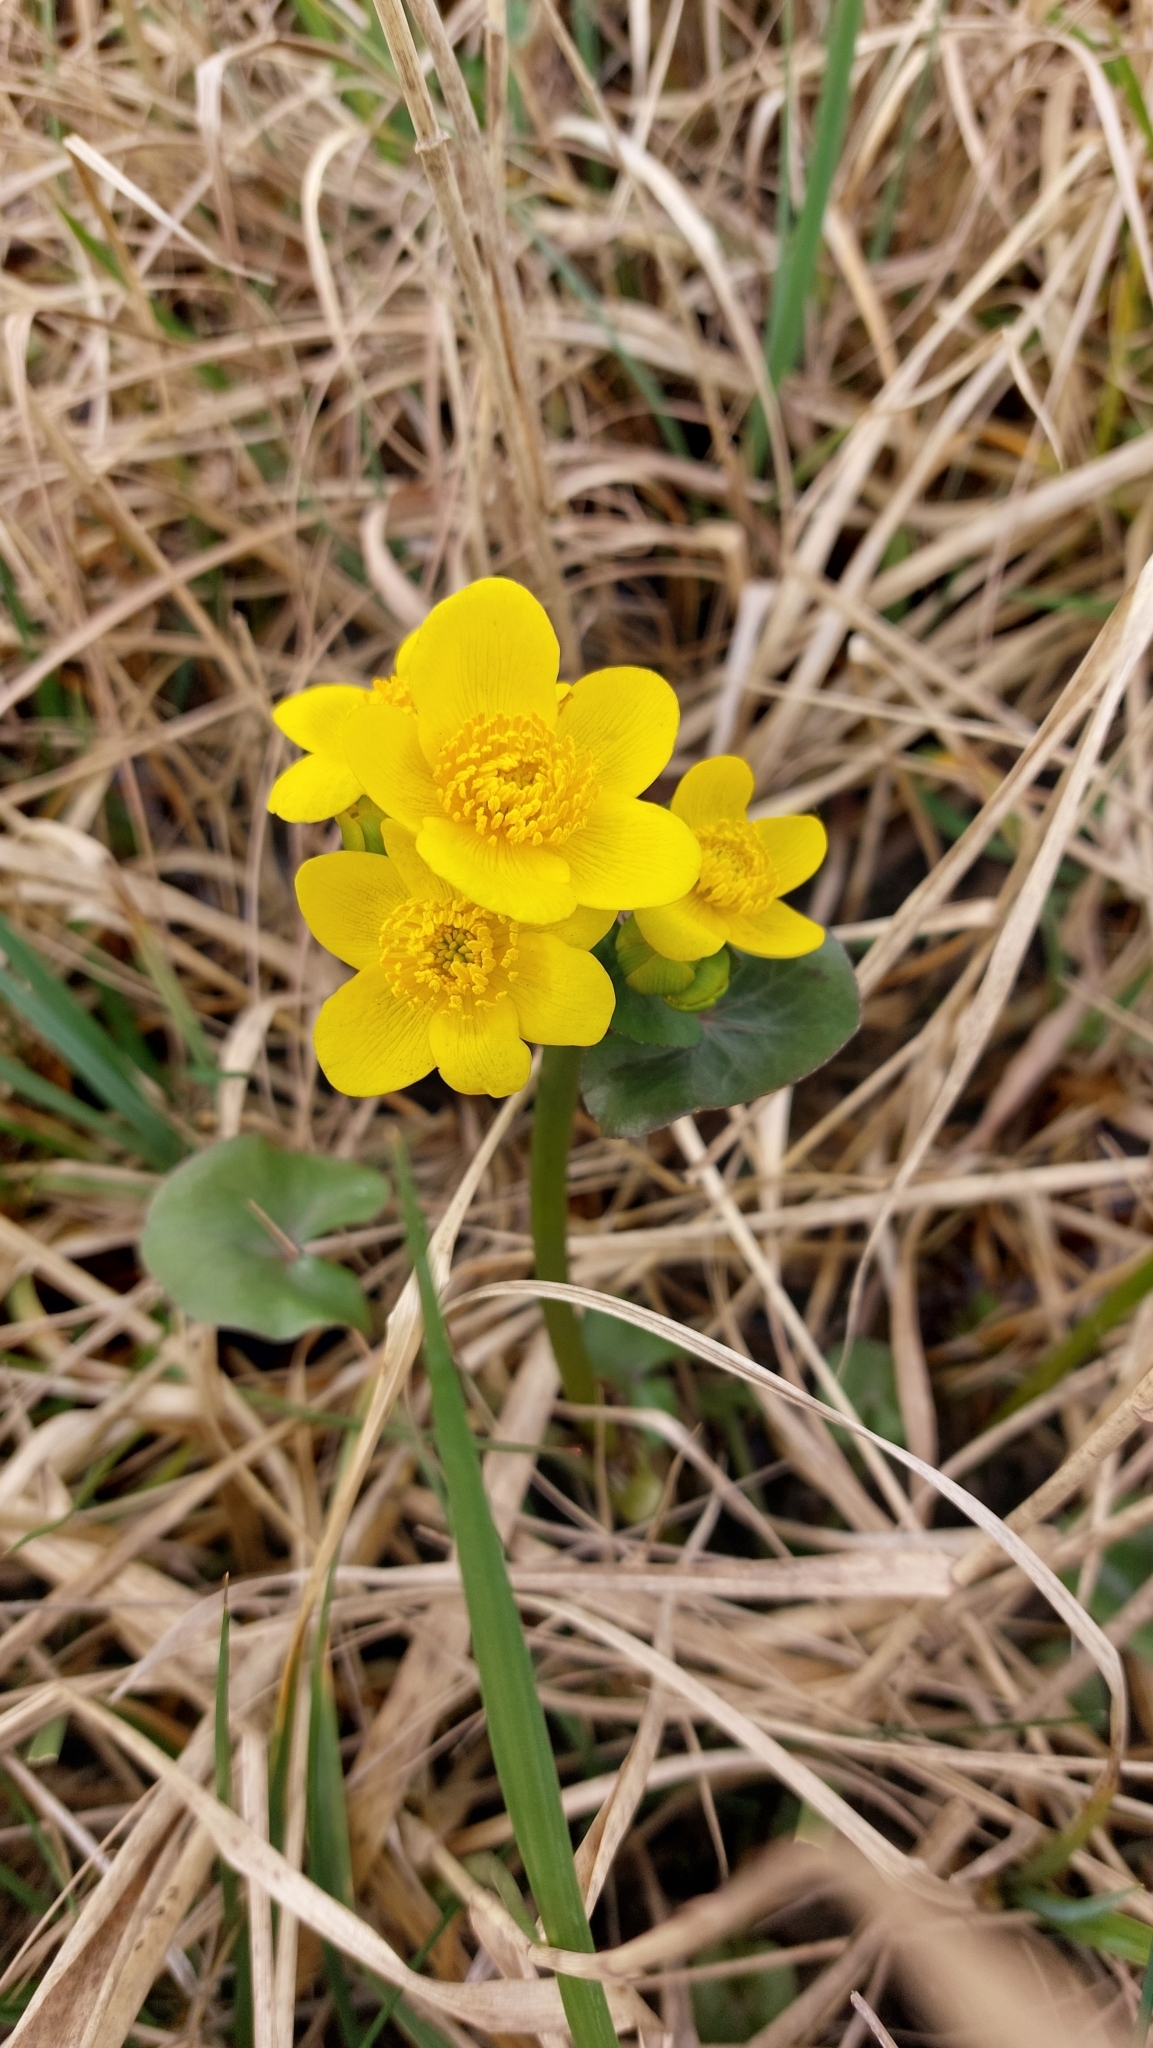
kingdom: Plantae
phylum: Tracheophyta
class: Magnoliopsida
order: Ranunculales
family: Ranunculaceae
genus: Caltha
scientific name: Caltha palustris
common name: Marsh marigold
